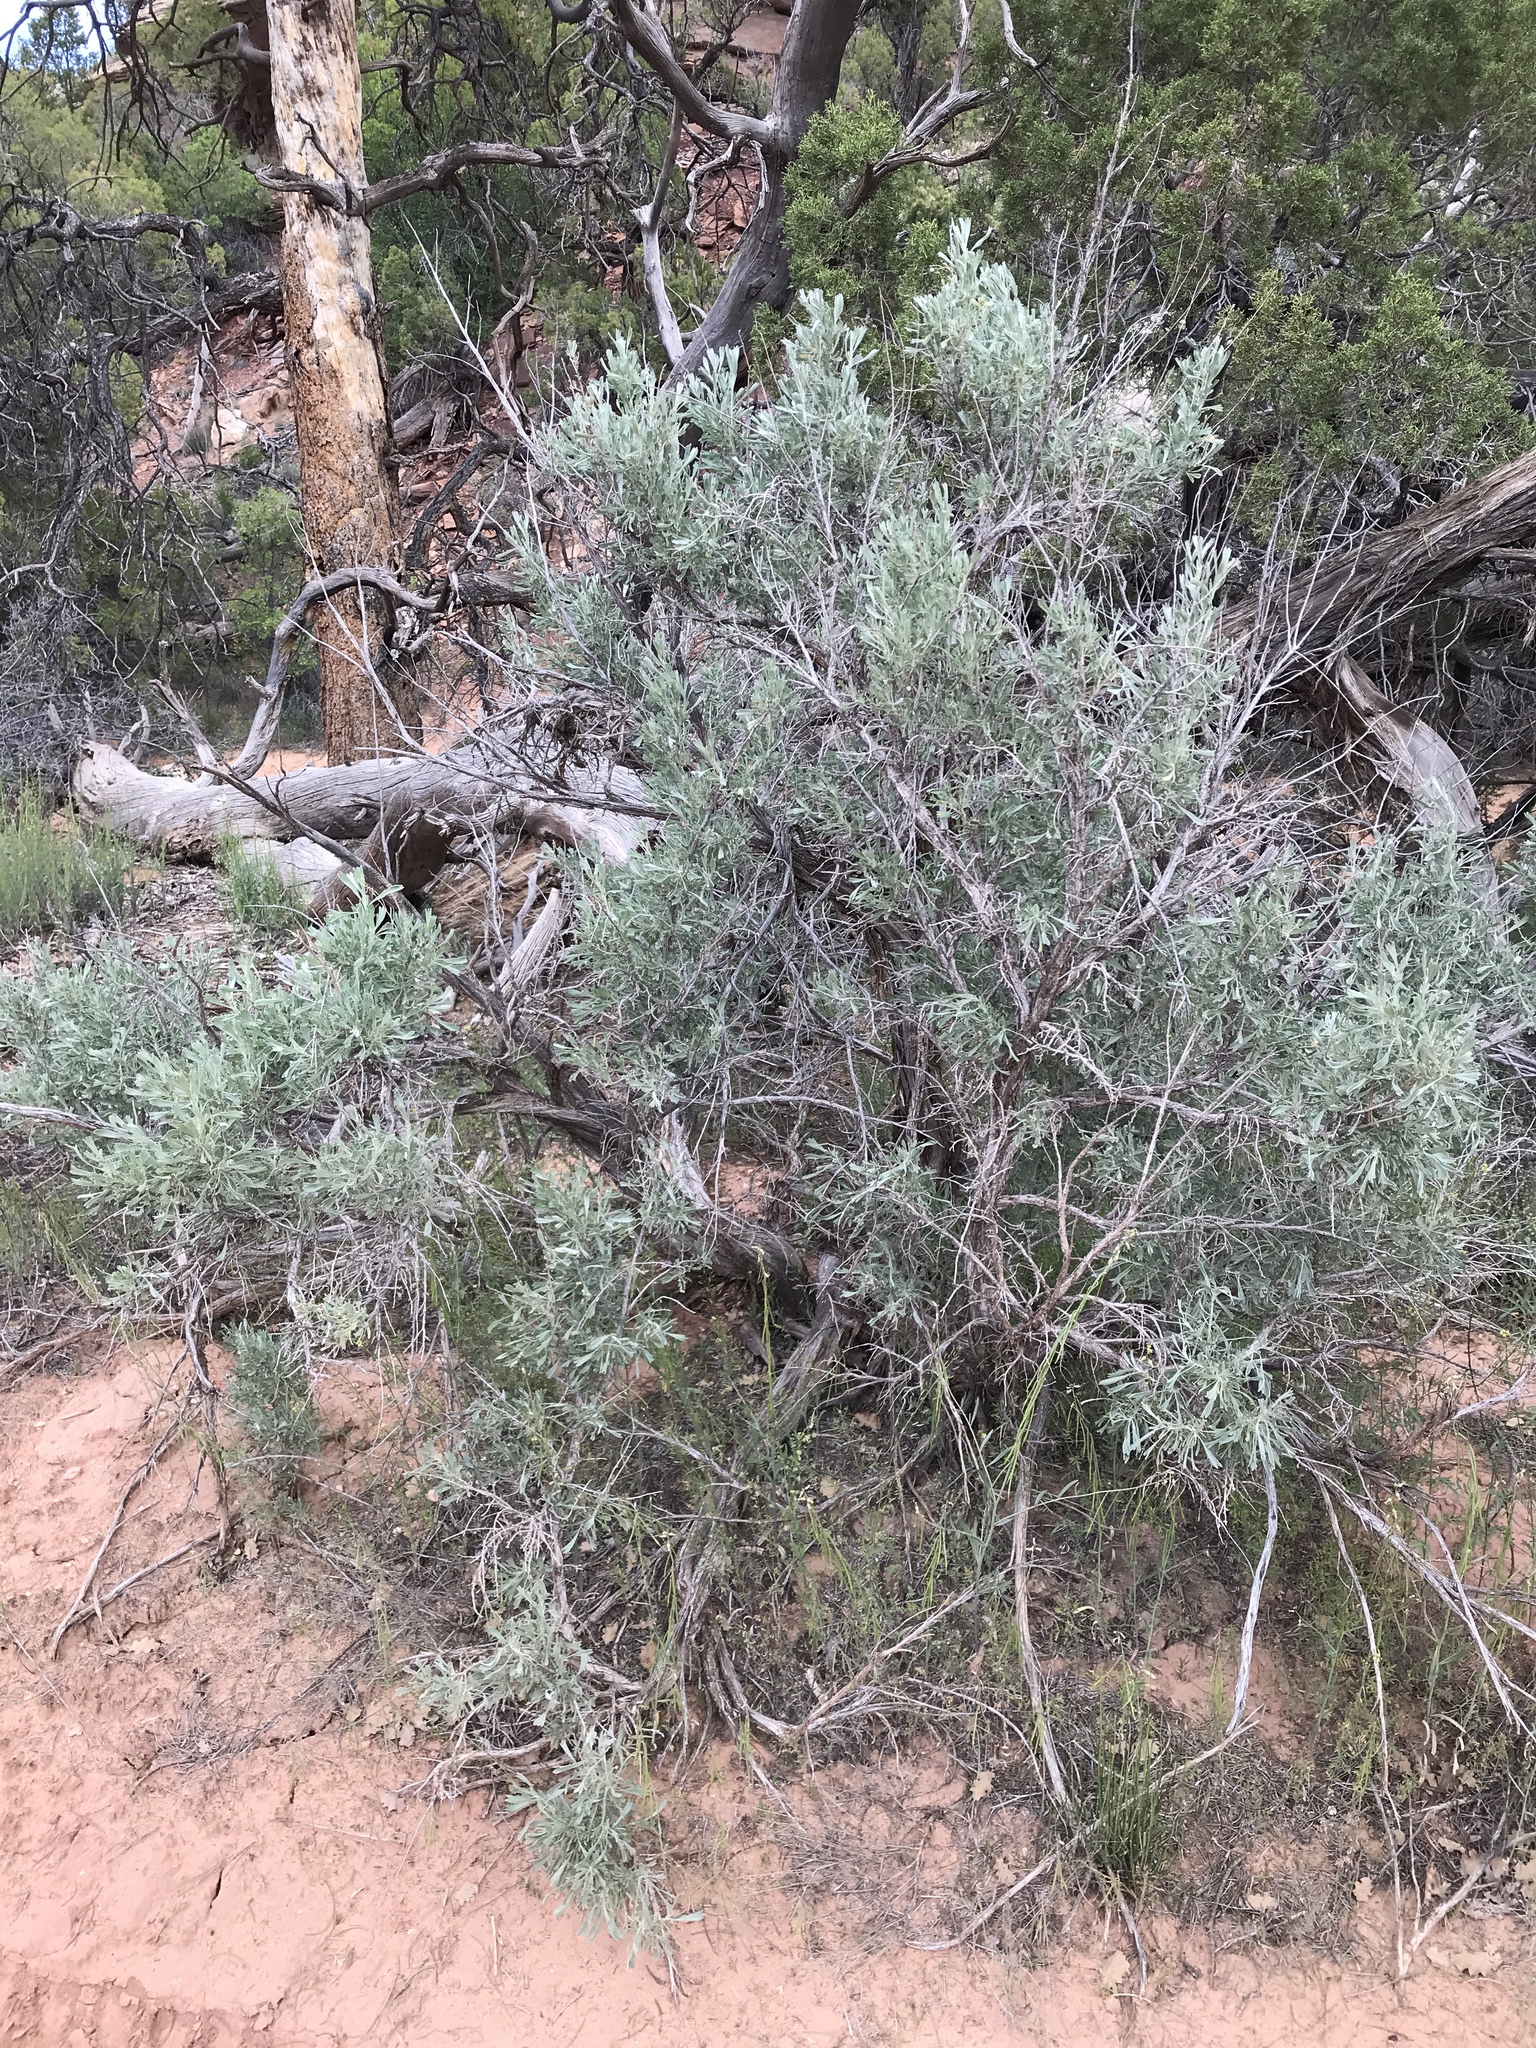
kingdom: Plantae
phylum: Tracheophyta
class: Magnoliopsida
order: Asterales
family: Asteraceae
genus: Artemisia
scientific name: Artemisia tridentata
